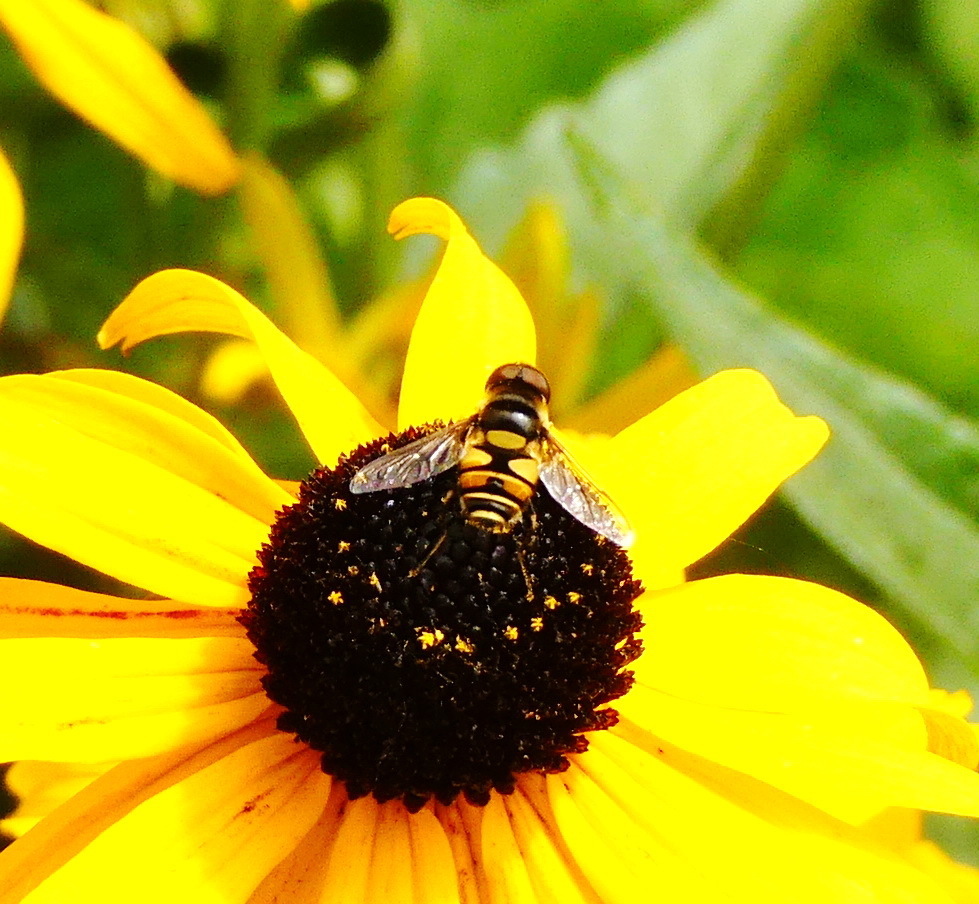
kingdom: Animalia
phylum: Arthropoda
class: Insecta
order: Diptera
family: Syrphidae
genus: Eristalis
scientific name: Eristalis transversa
